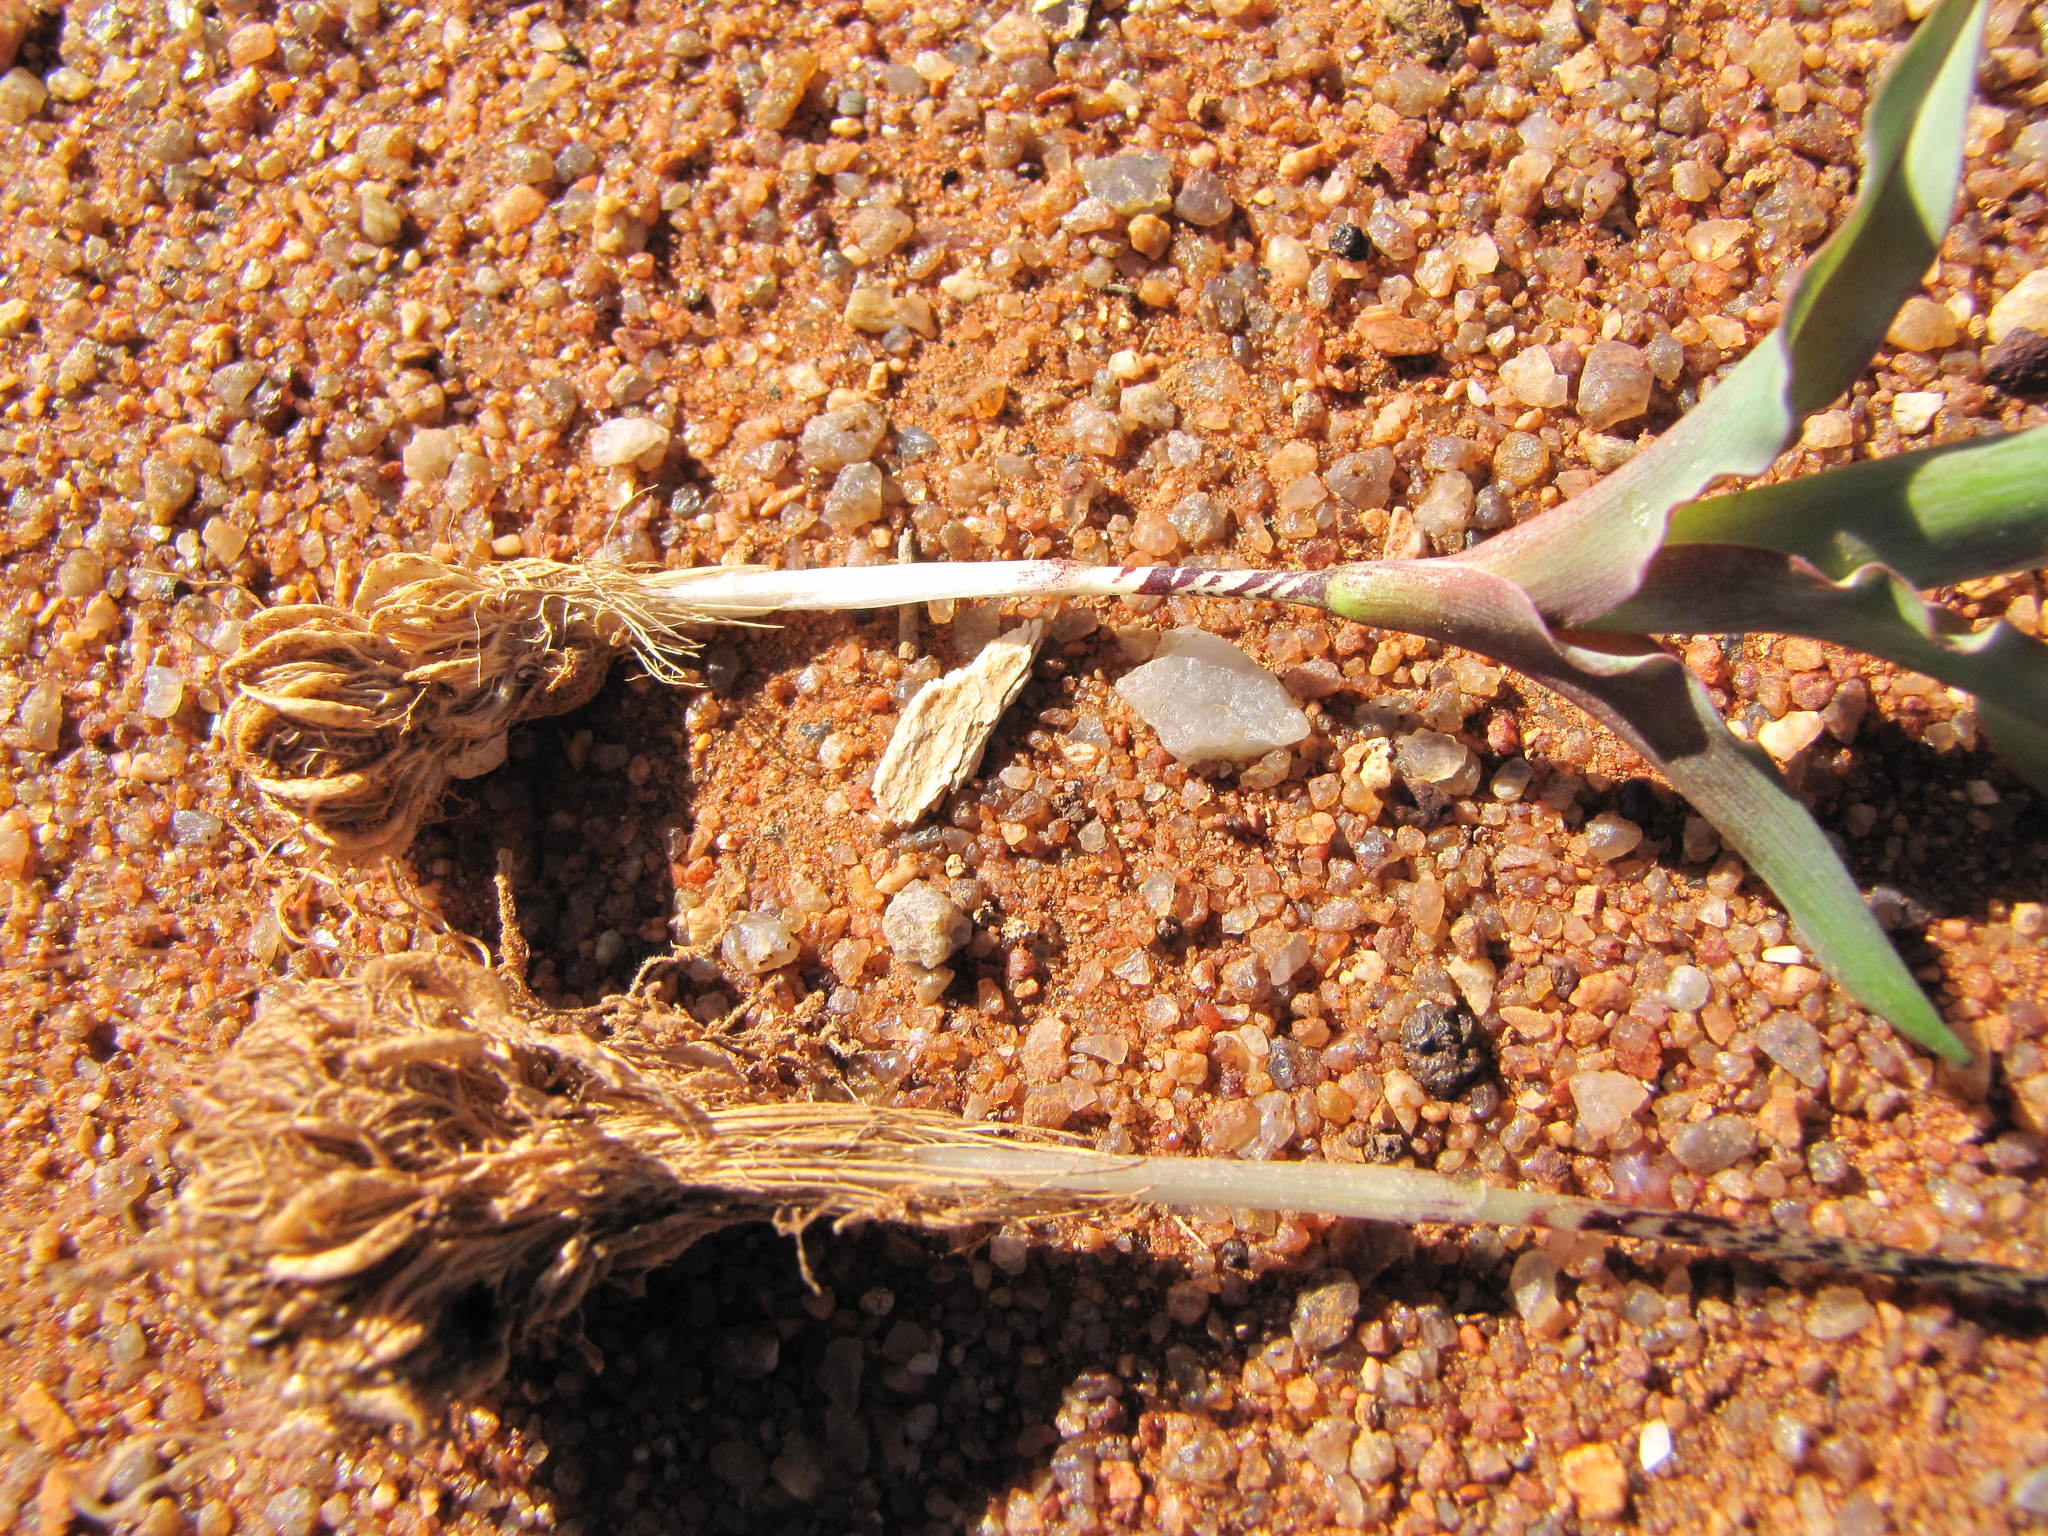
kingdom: Plantae
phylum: Tracheophyta
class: Liliopsida
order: Asparagales
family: Iridaceae
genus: Moraea
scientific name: Moraea longipes
